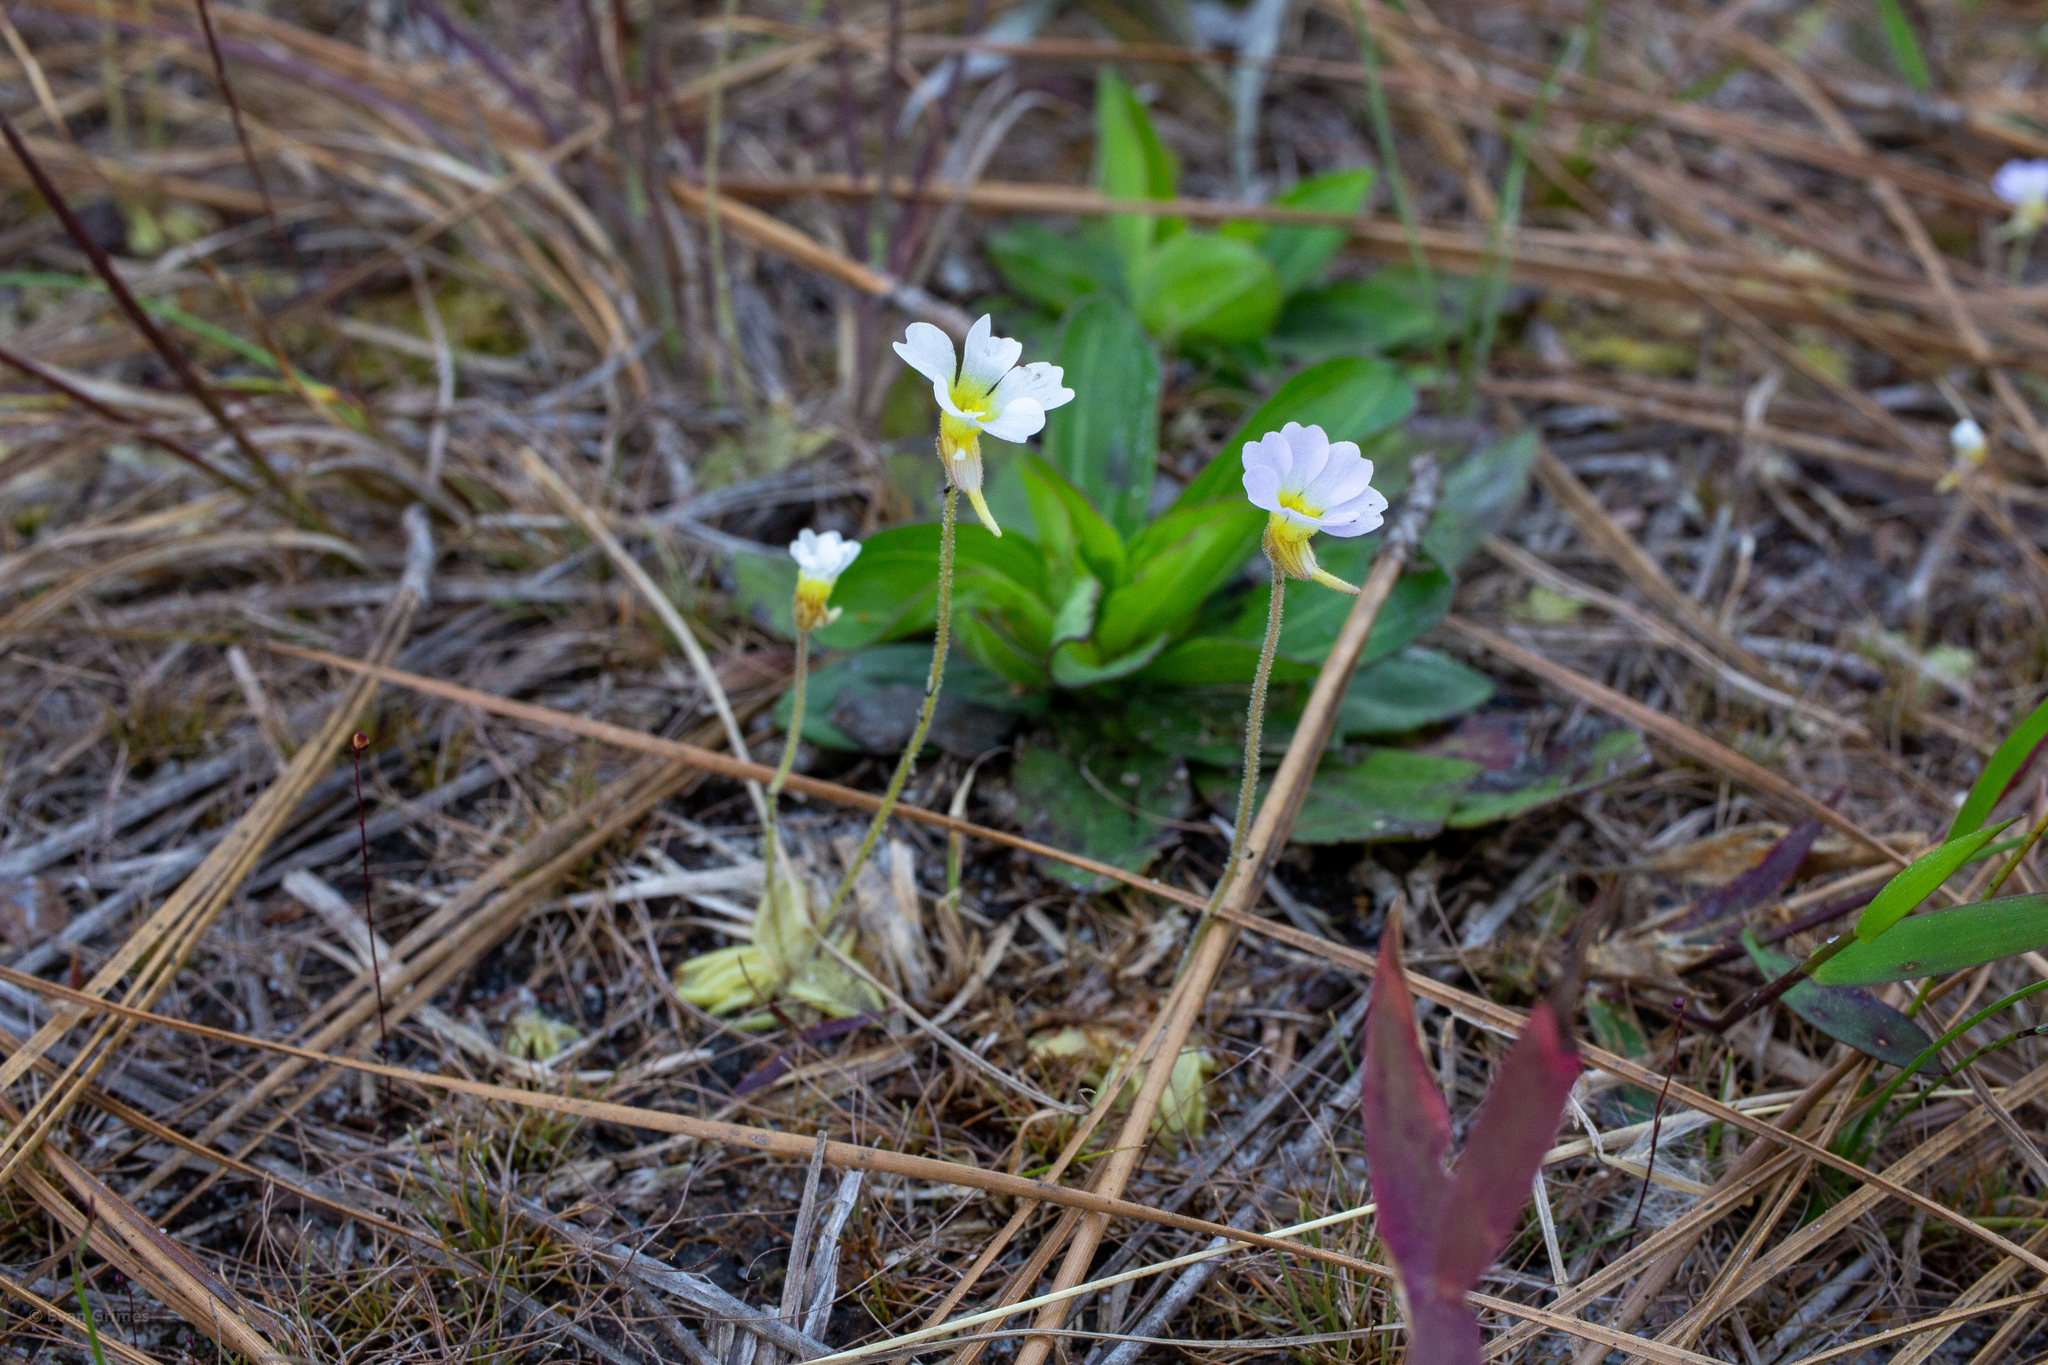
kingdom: Plantae
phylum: Tracheophyta
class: Magnoliopsida
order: Lamiales
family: Lentibulariaceae
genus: Pinguicula
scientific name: Pinguicula pumila
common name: Small butterwort
